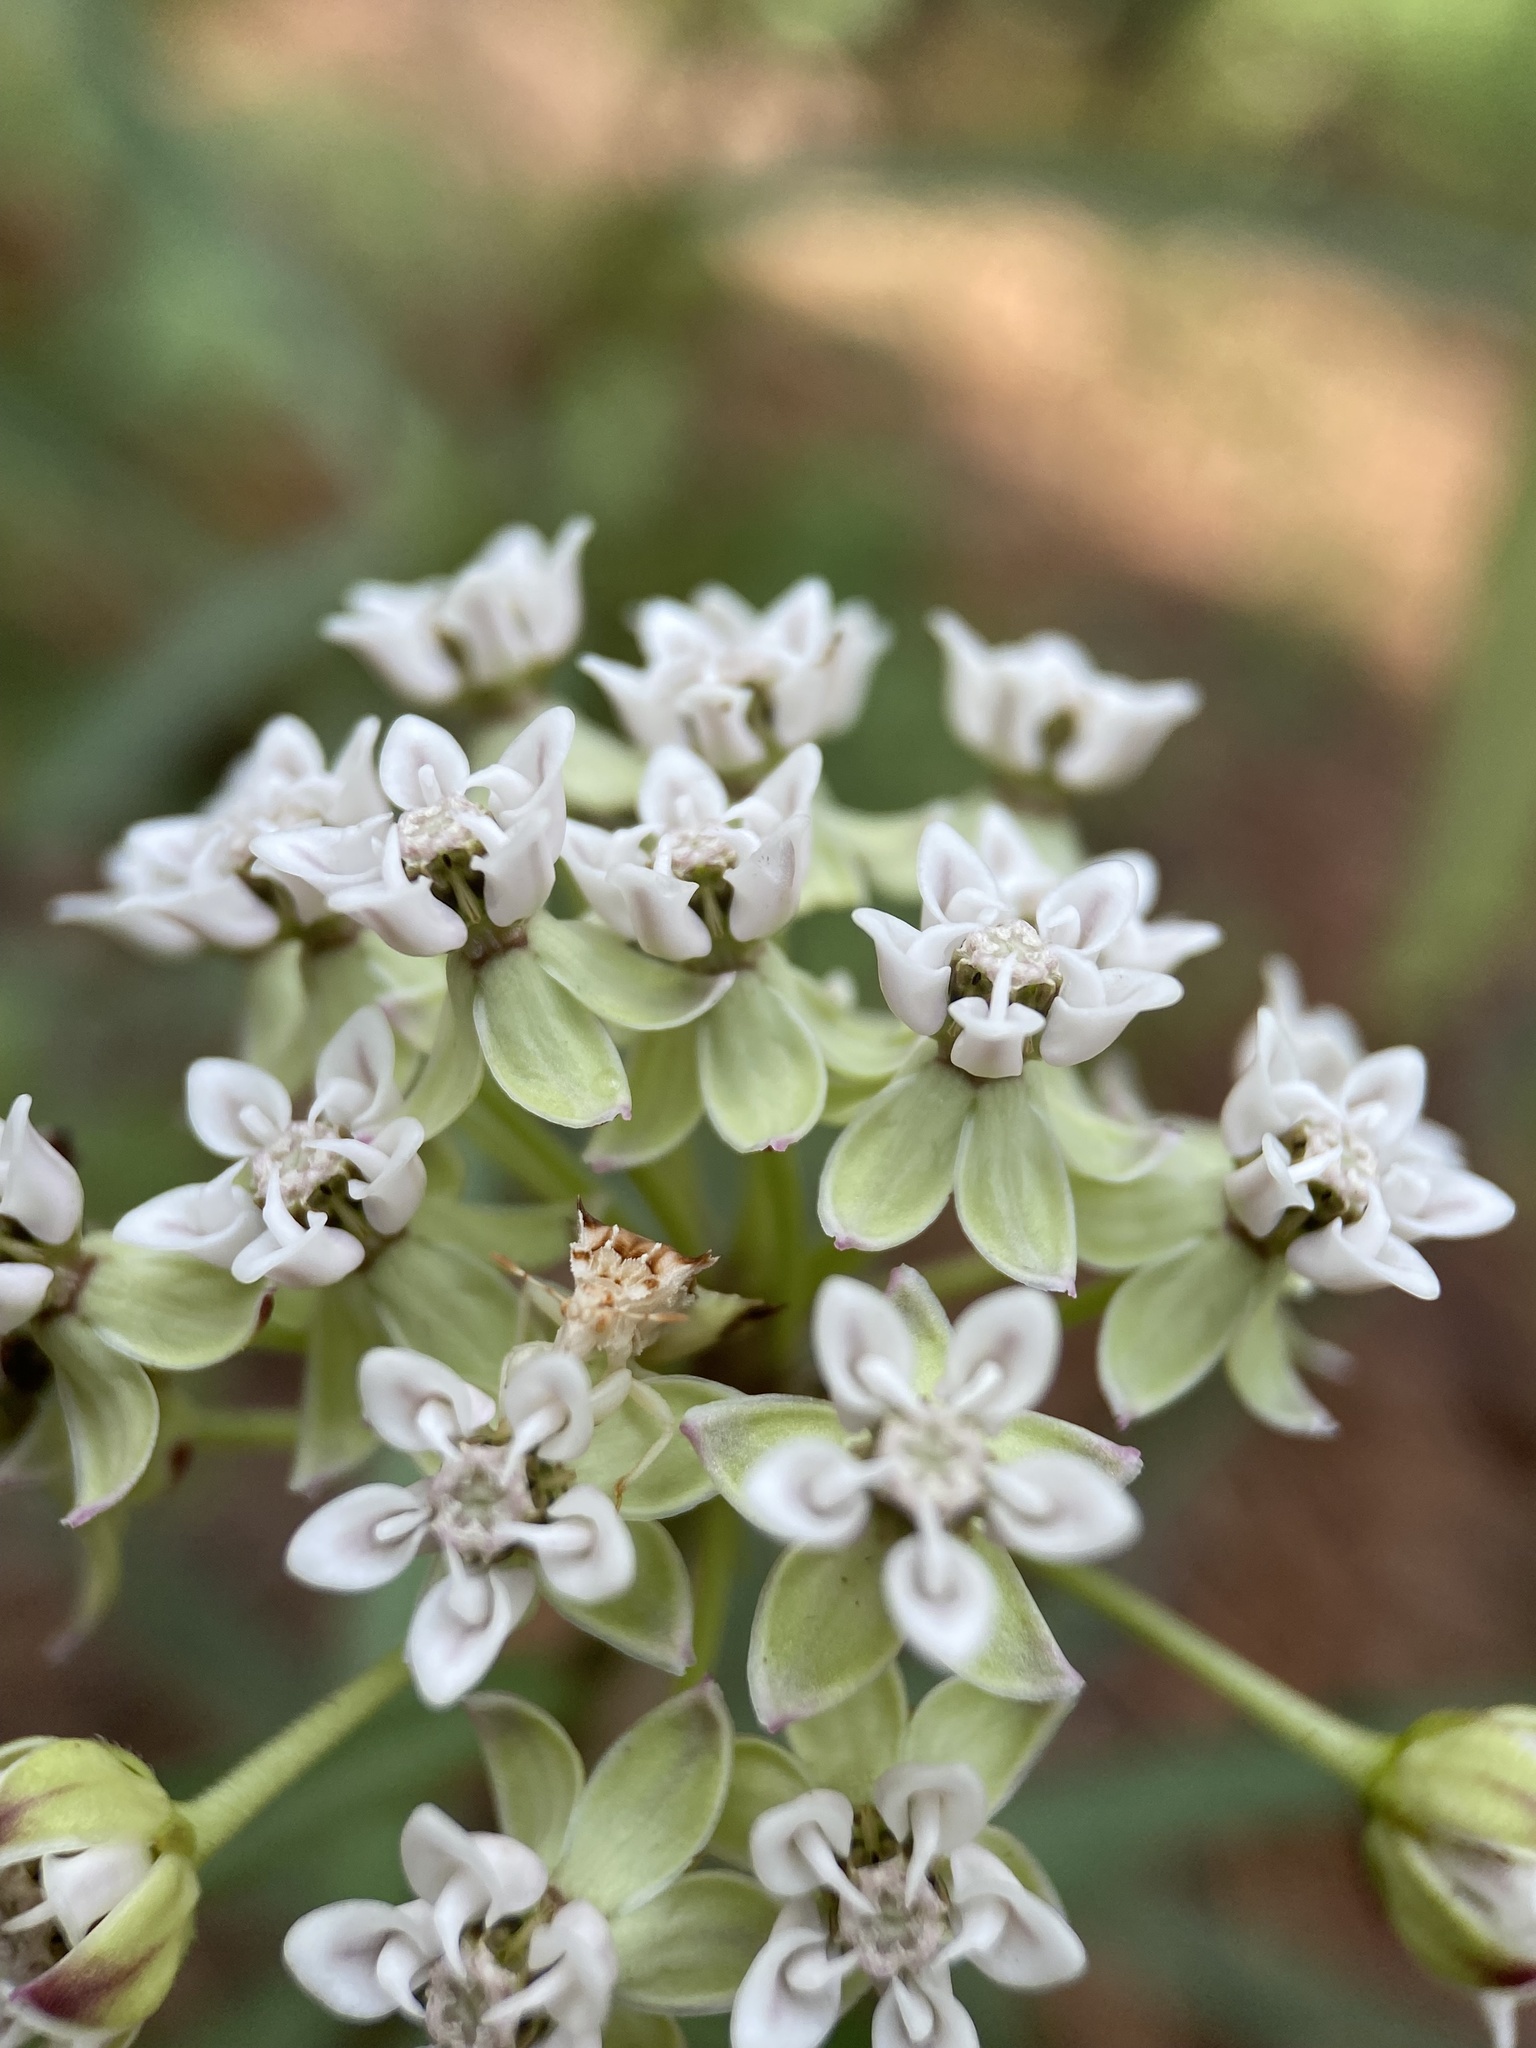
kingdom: Plantae
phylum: Tracheophyta
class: Magnoliopsida
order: Gentianales
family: Apocynaceae
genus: Asclepias
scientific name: Asclepias michauxii
